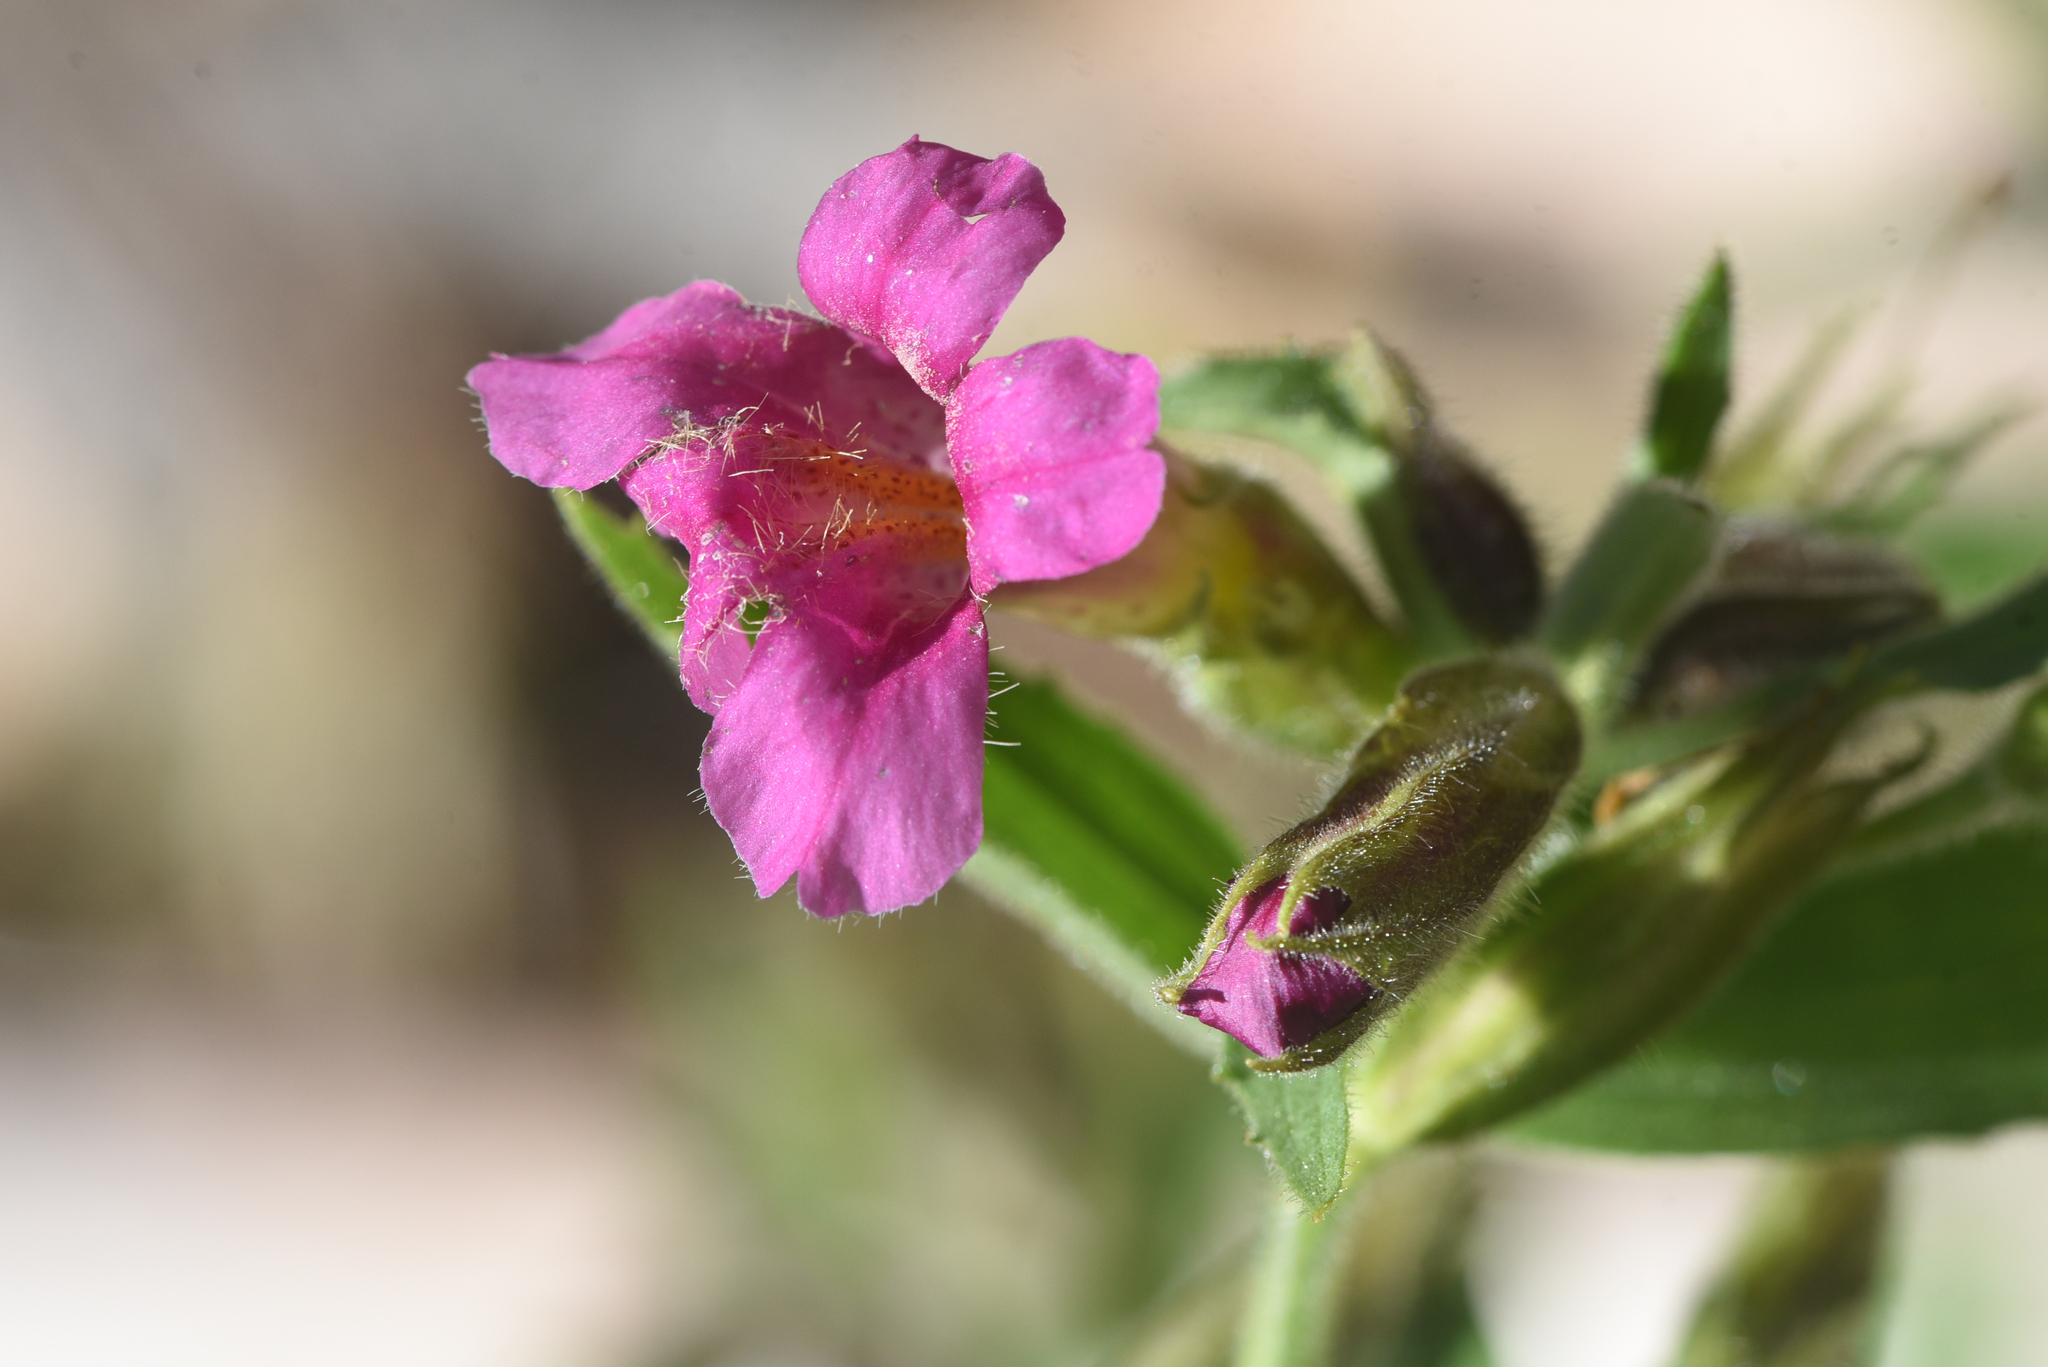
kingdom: Plantae
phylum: Tracheophyta
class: Magnoliopsida
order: Lamiales
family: Phrymaceae
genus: Erythranthe
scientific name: Erythranthe lewisii
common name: Lewis's monkey-flower
